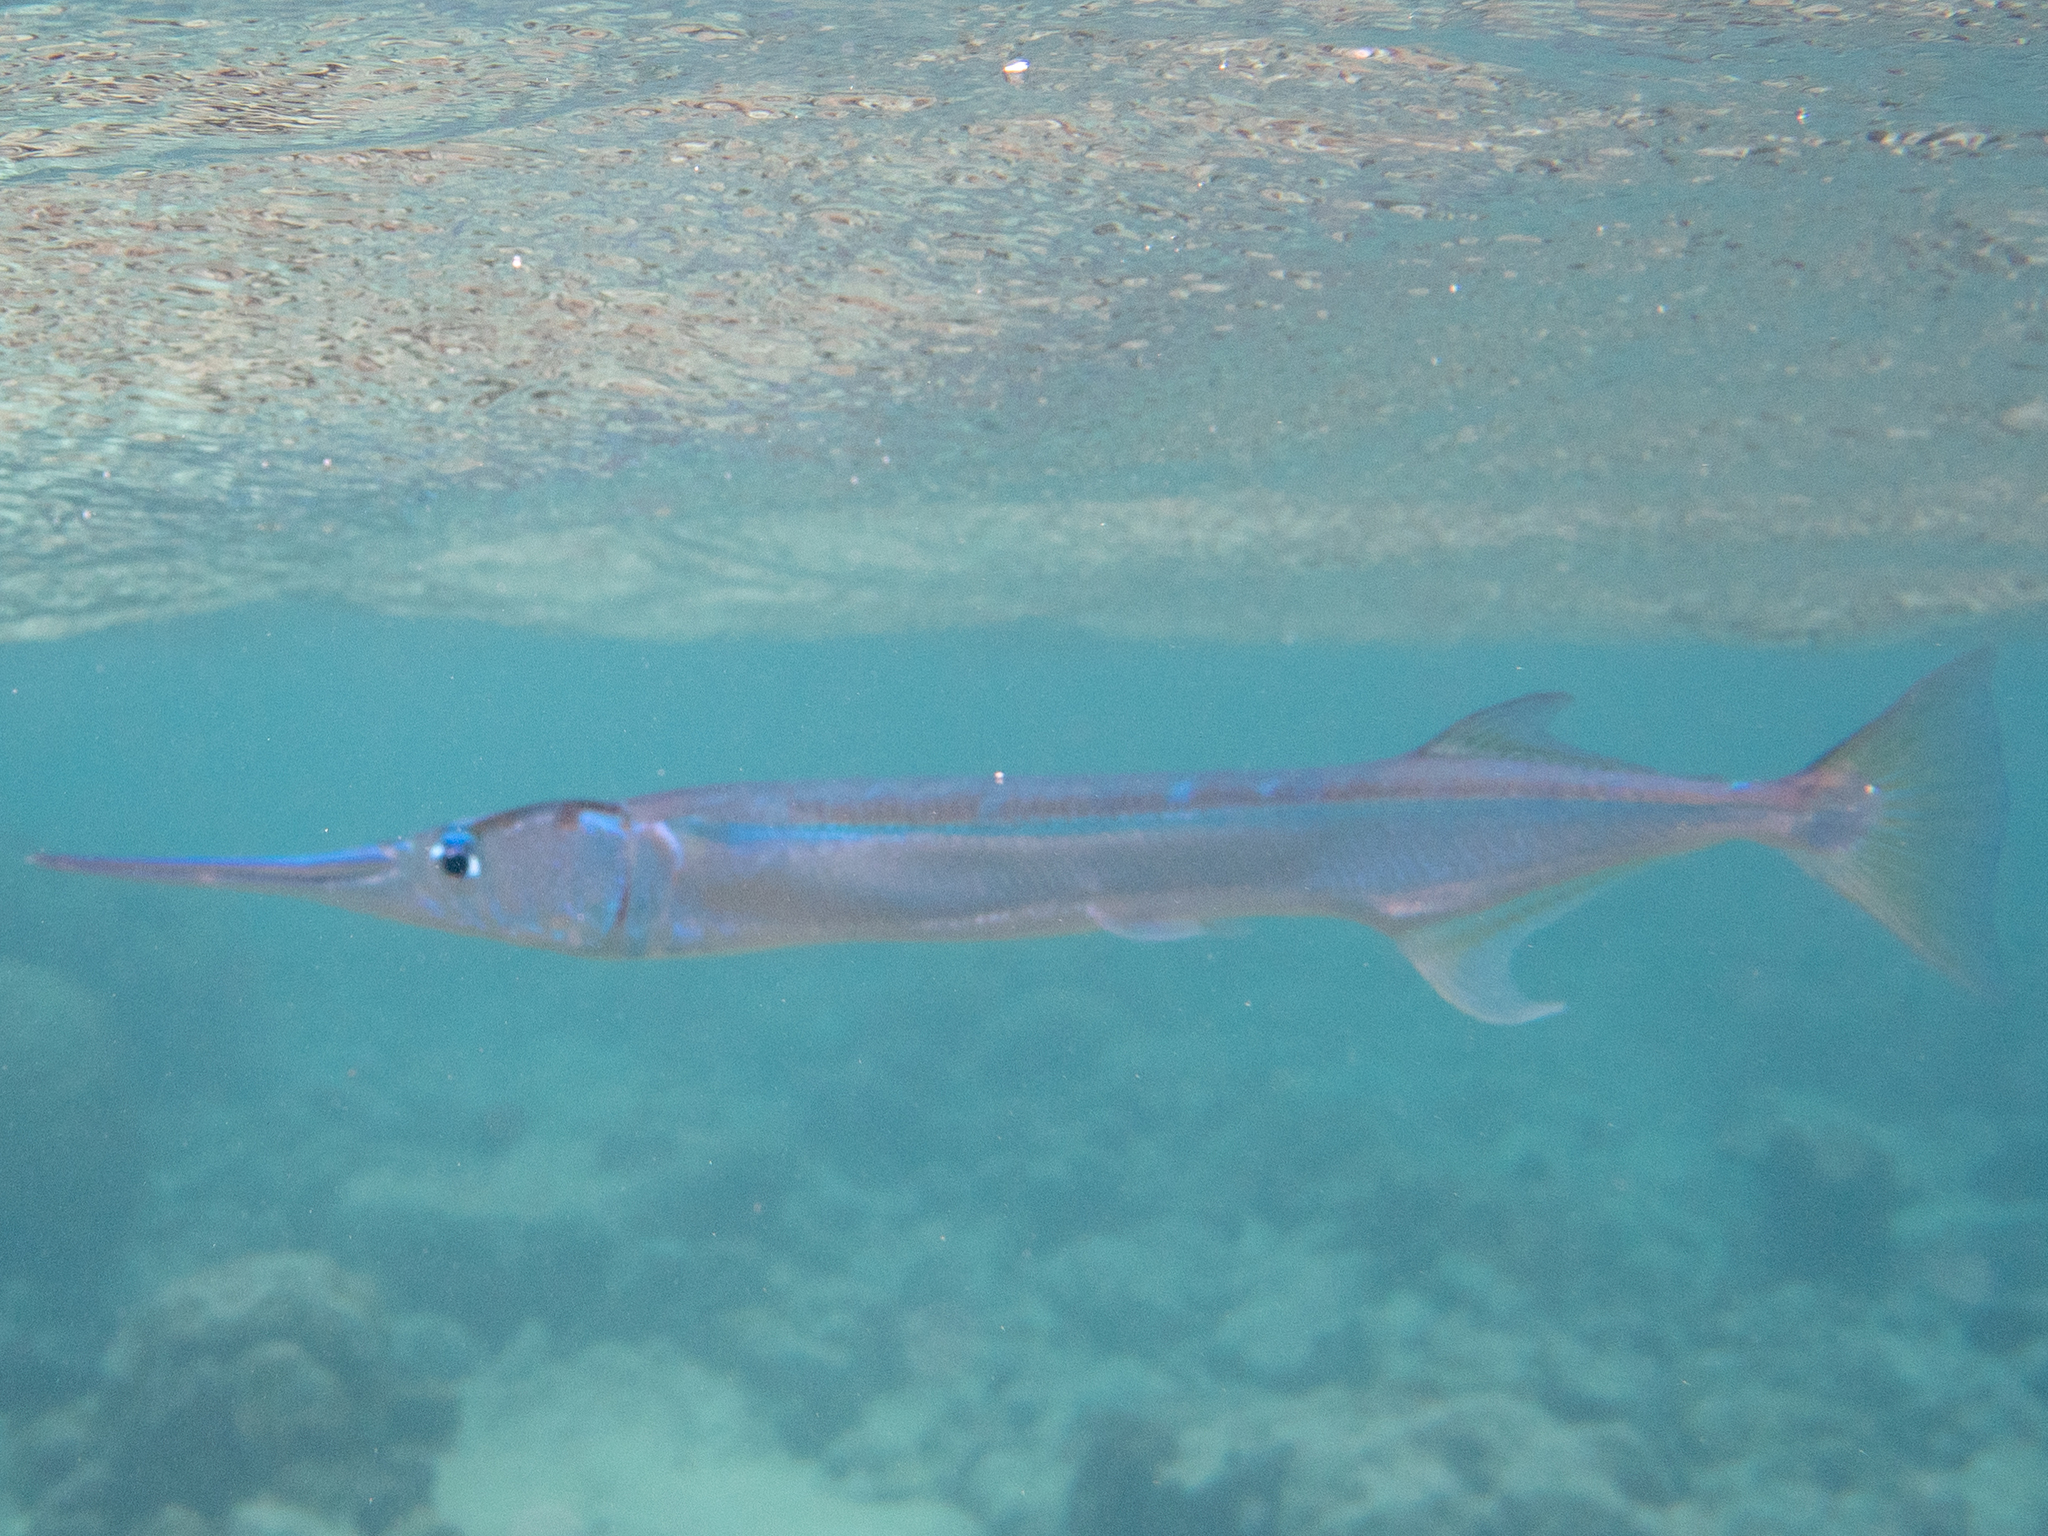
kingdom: Animalia
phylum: Chordata
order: Beloniformes
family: Belonidae
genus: Strongylura
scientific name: Strongylura leiura
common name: Banded needlefish
